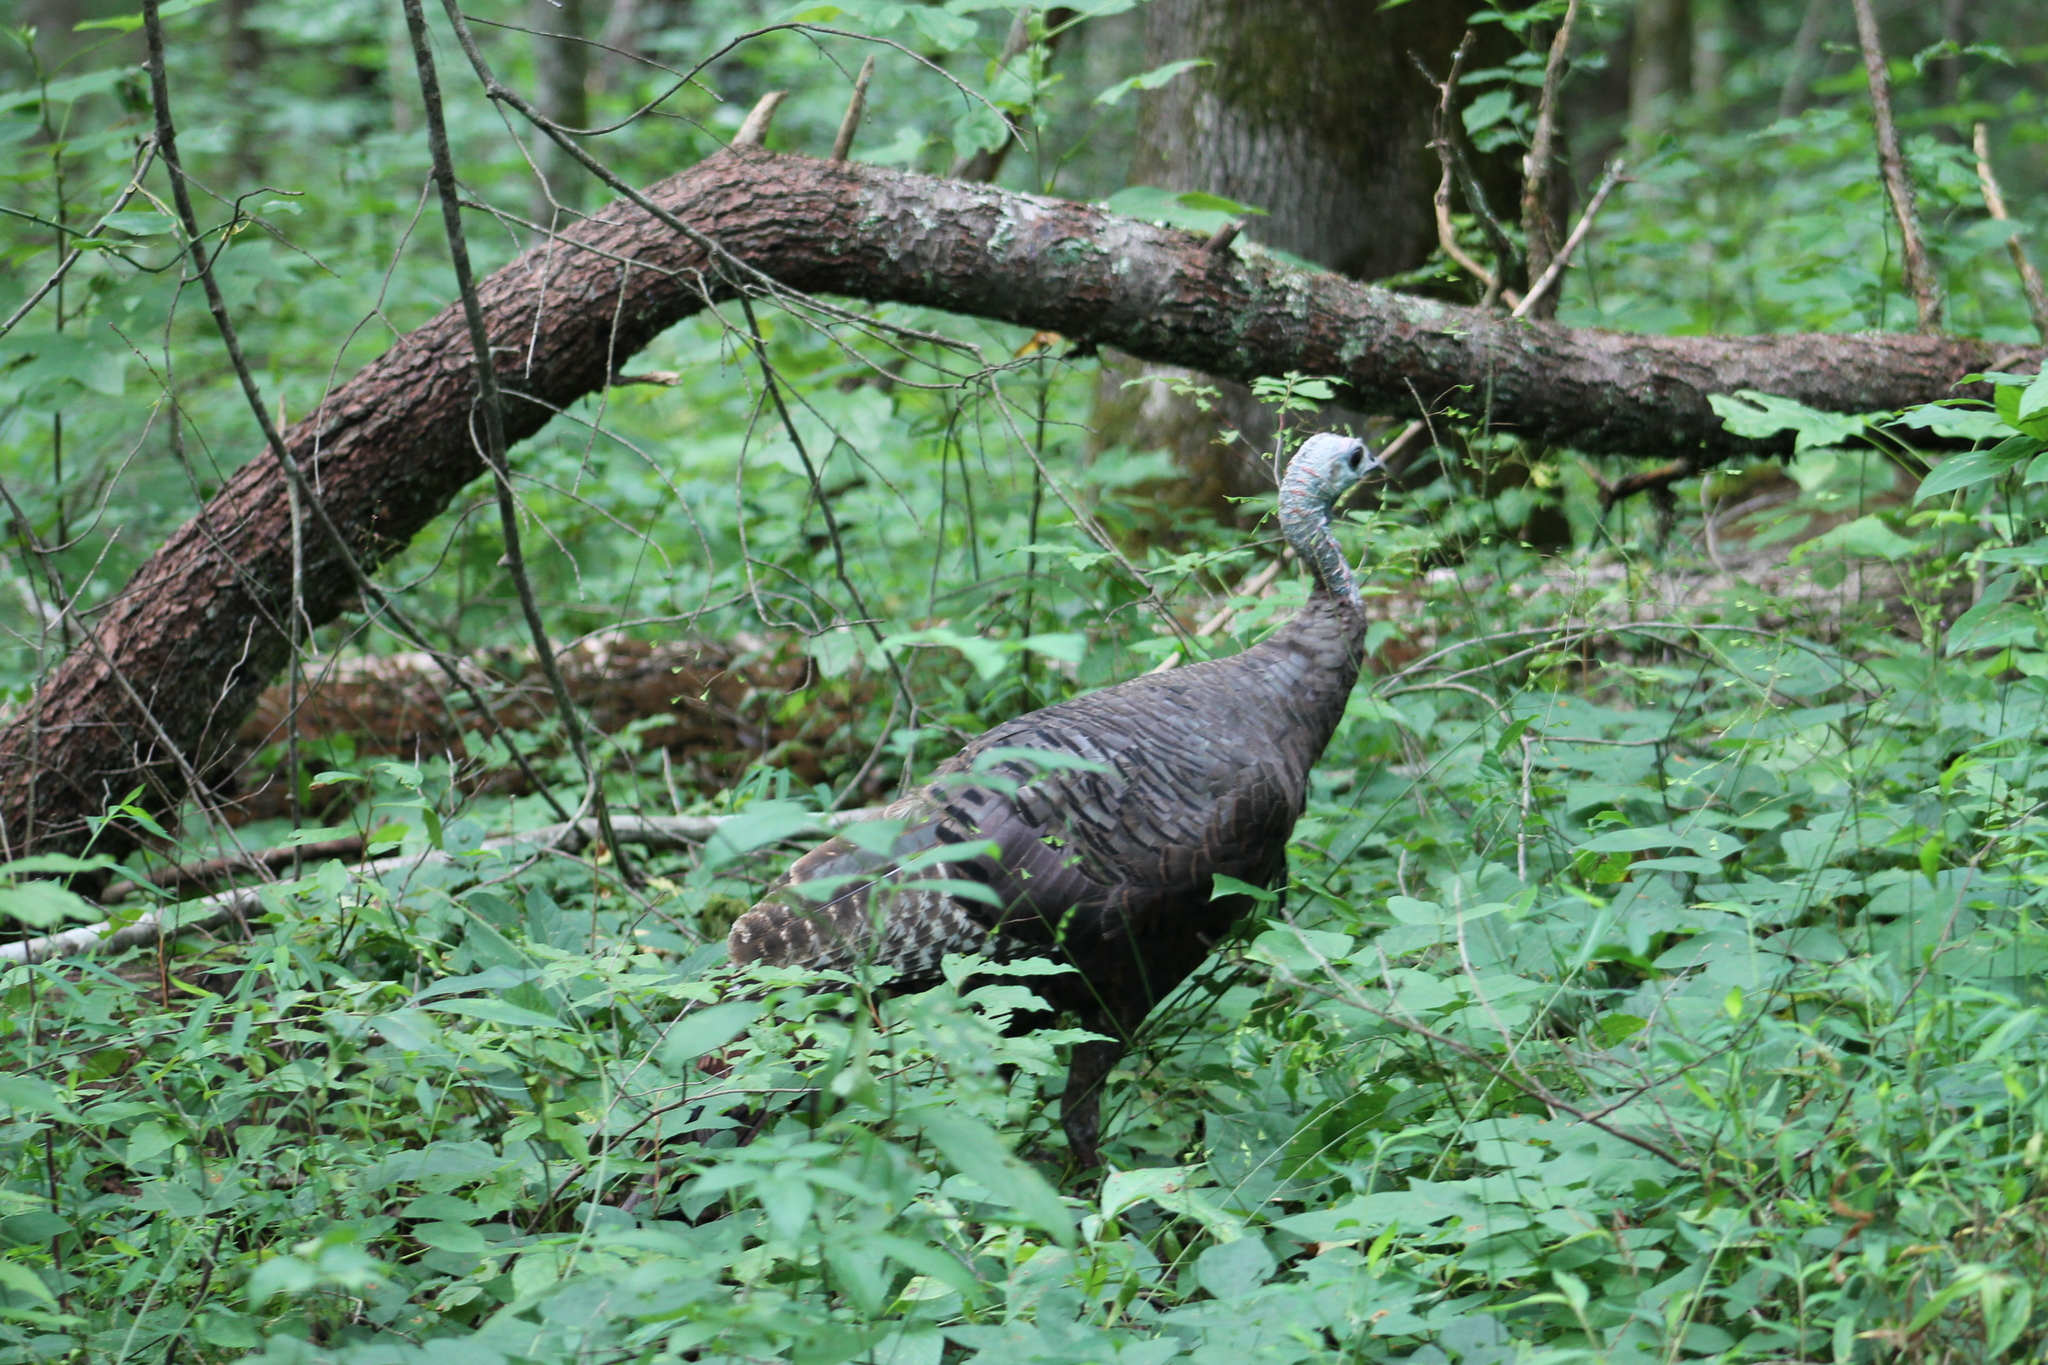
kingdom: Animalia
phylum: Chordata
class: Aves
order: Galliformes
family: Phasianidae
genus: Meleagris
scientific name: Meleagris gallopavo
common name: Wild turkey
